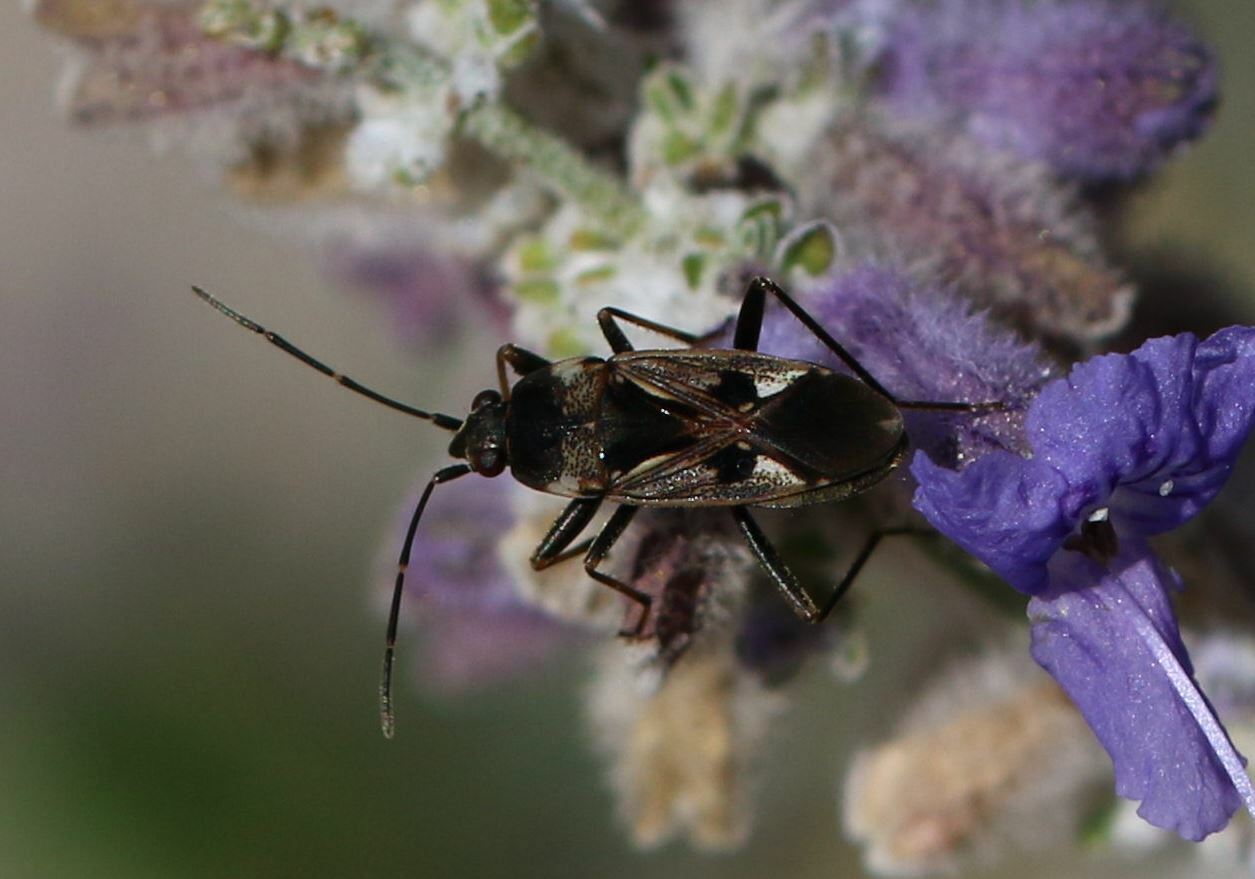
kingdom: Animalia
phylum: Arthropoda
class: Insecta
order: Hemiptera
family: Rhyparochromidae
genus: Rhyparochromus
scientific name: Rhyparochromus vulgaris
